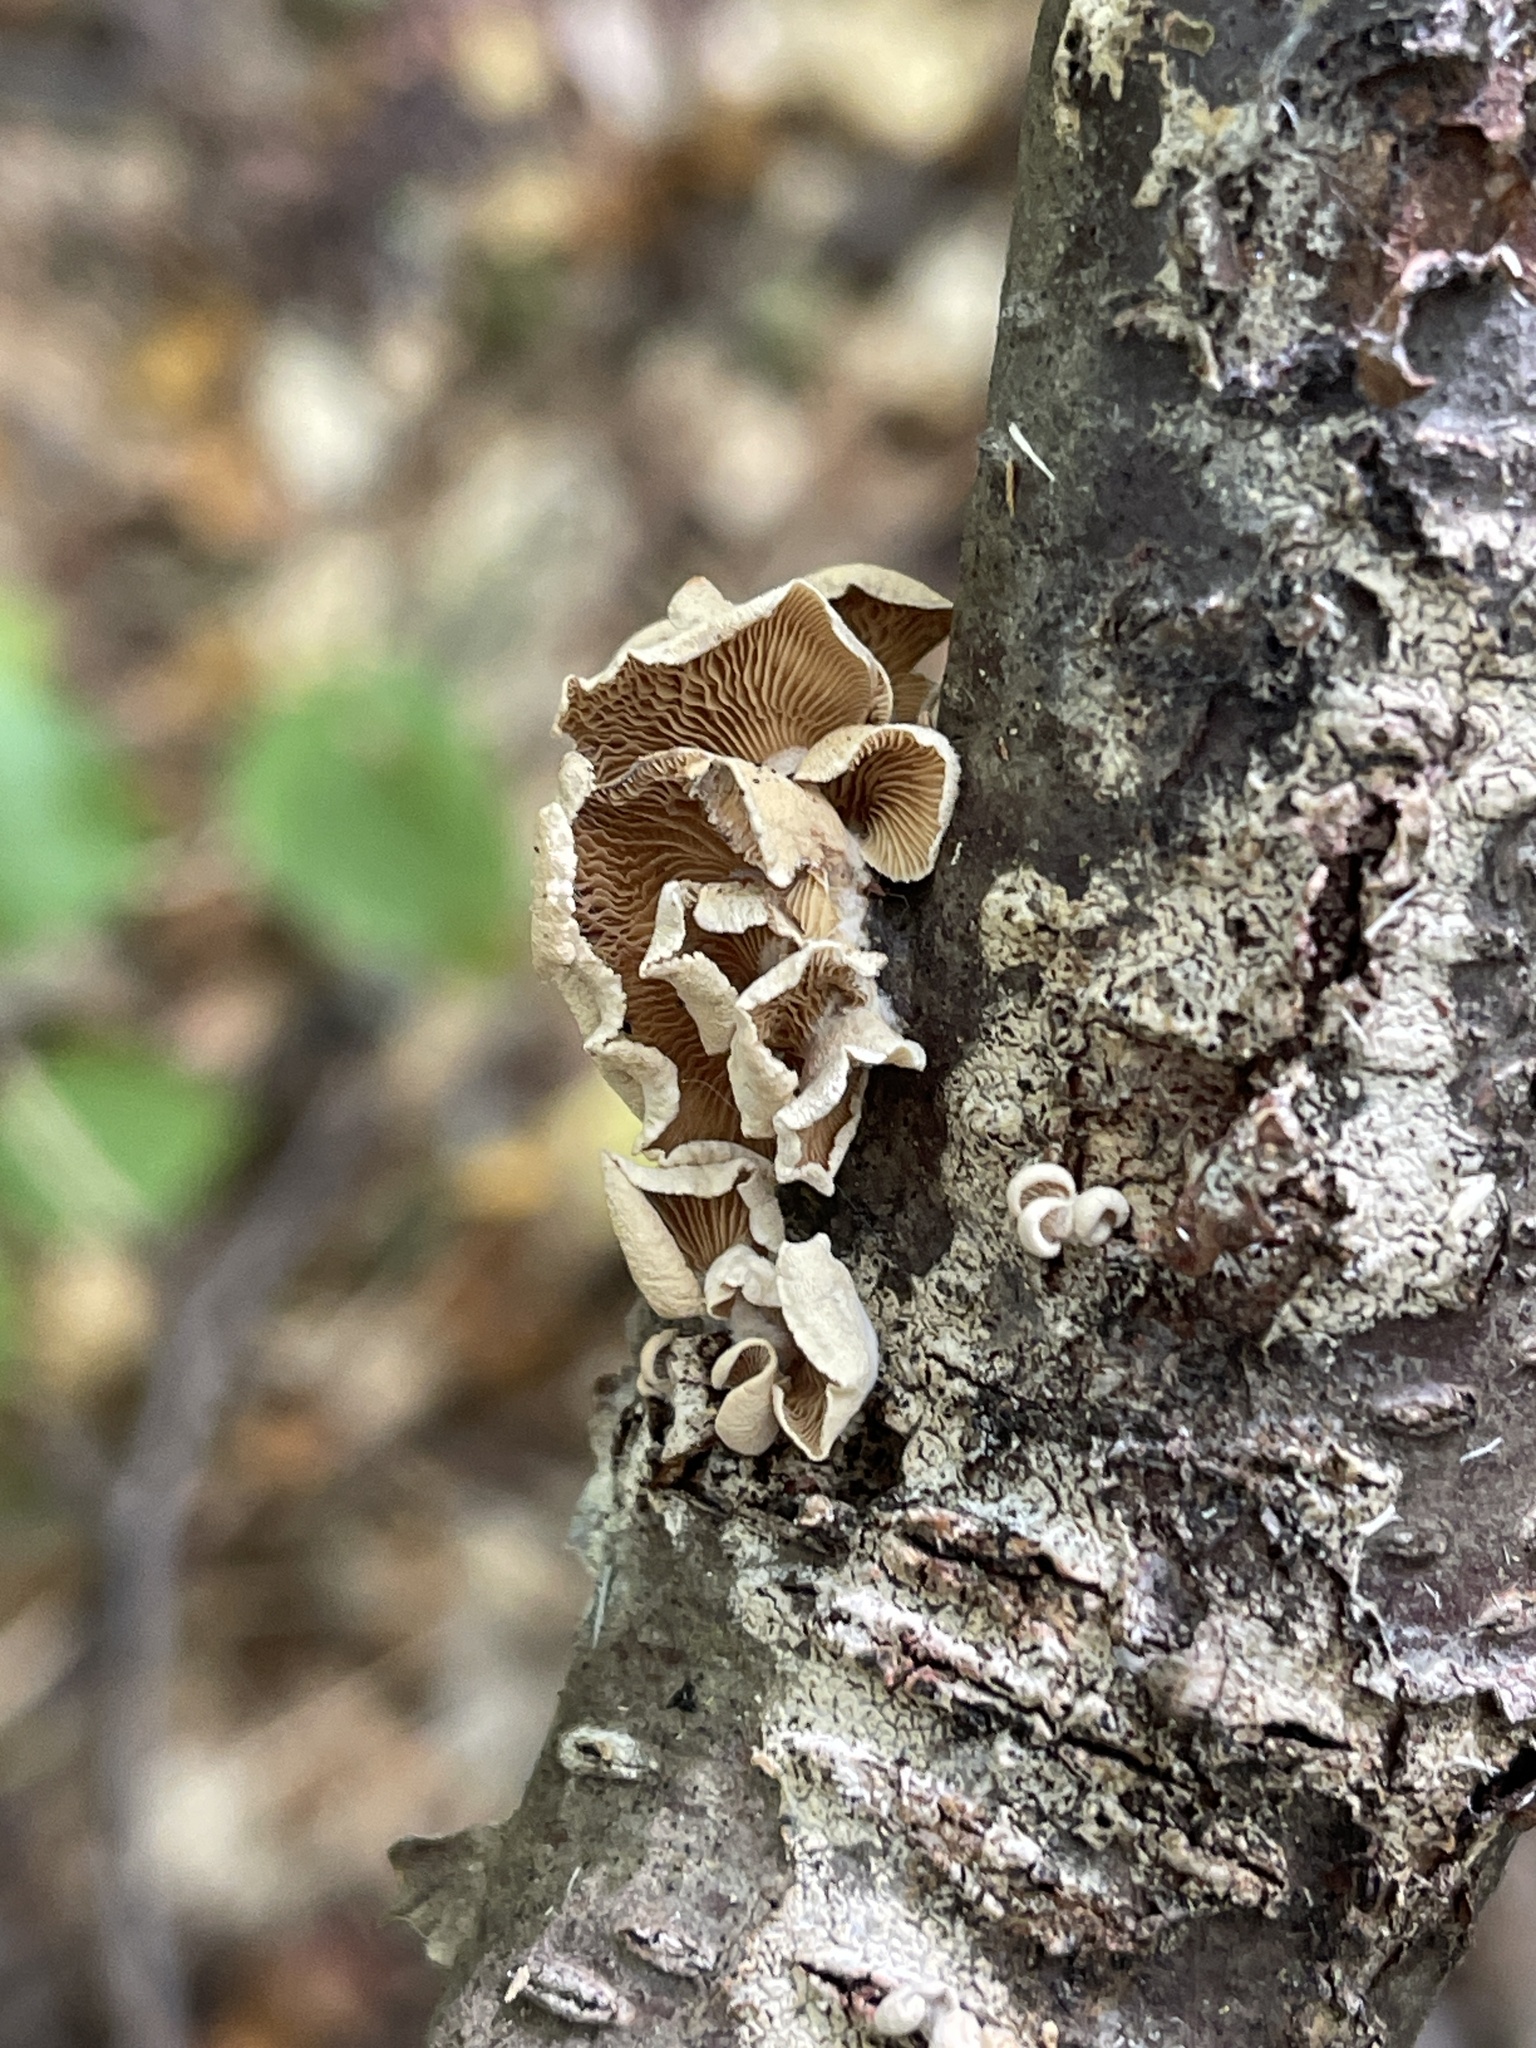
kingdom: Fungi
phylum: Basidiomycota
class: Agaricomycetes
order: Agaricales
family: Mycenaceae
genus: Panellus
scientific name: Panellus stipticus
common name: Bitter oysterling
